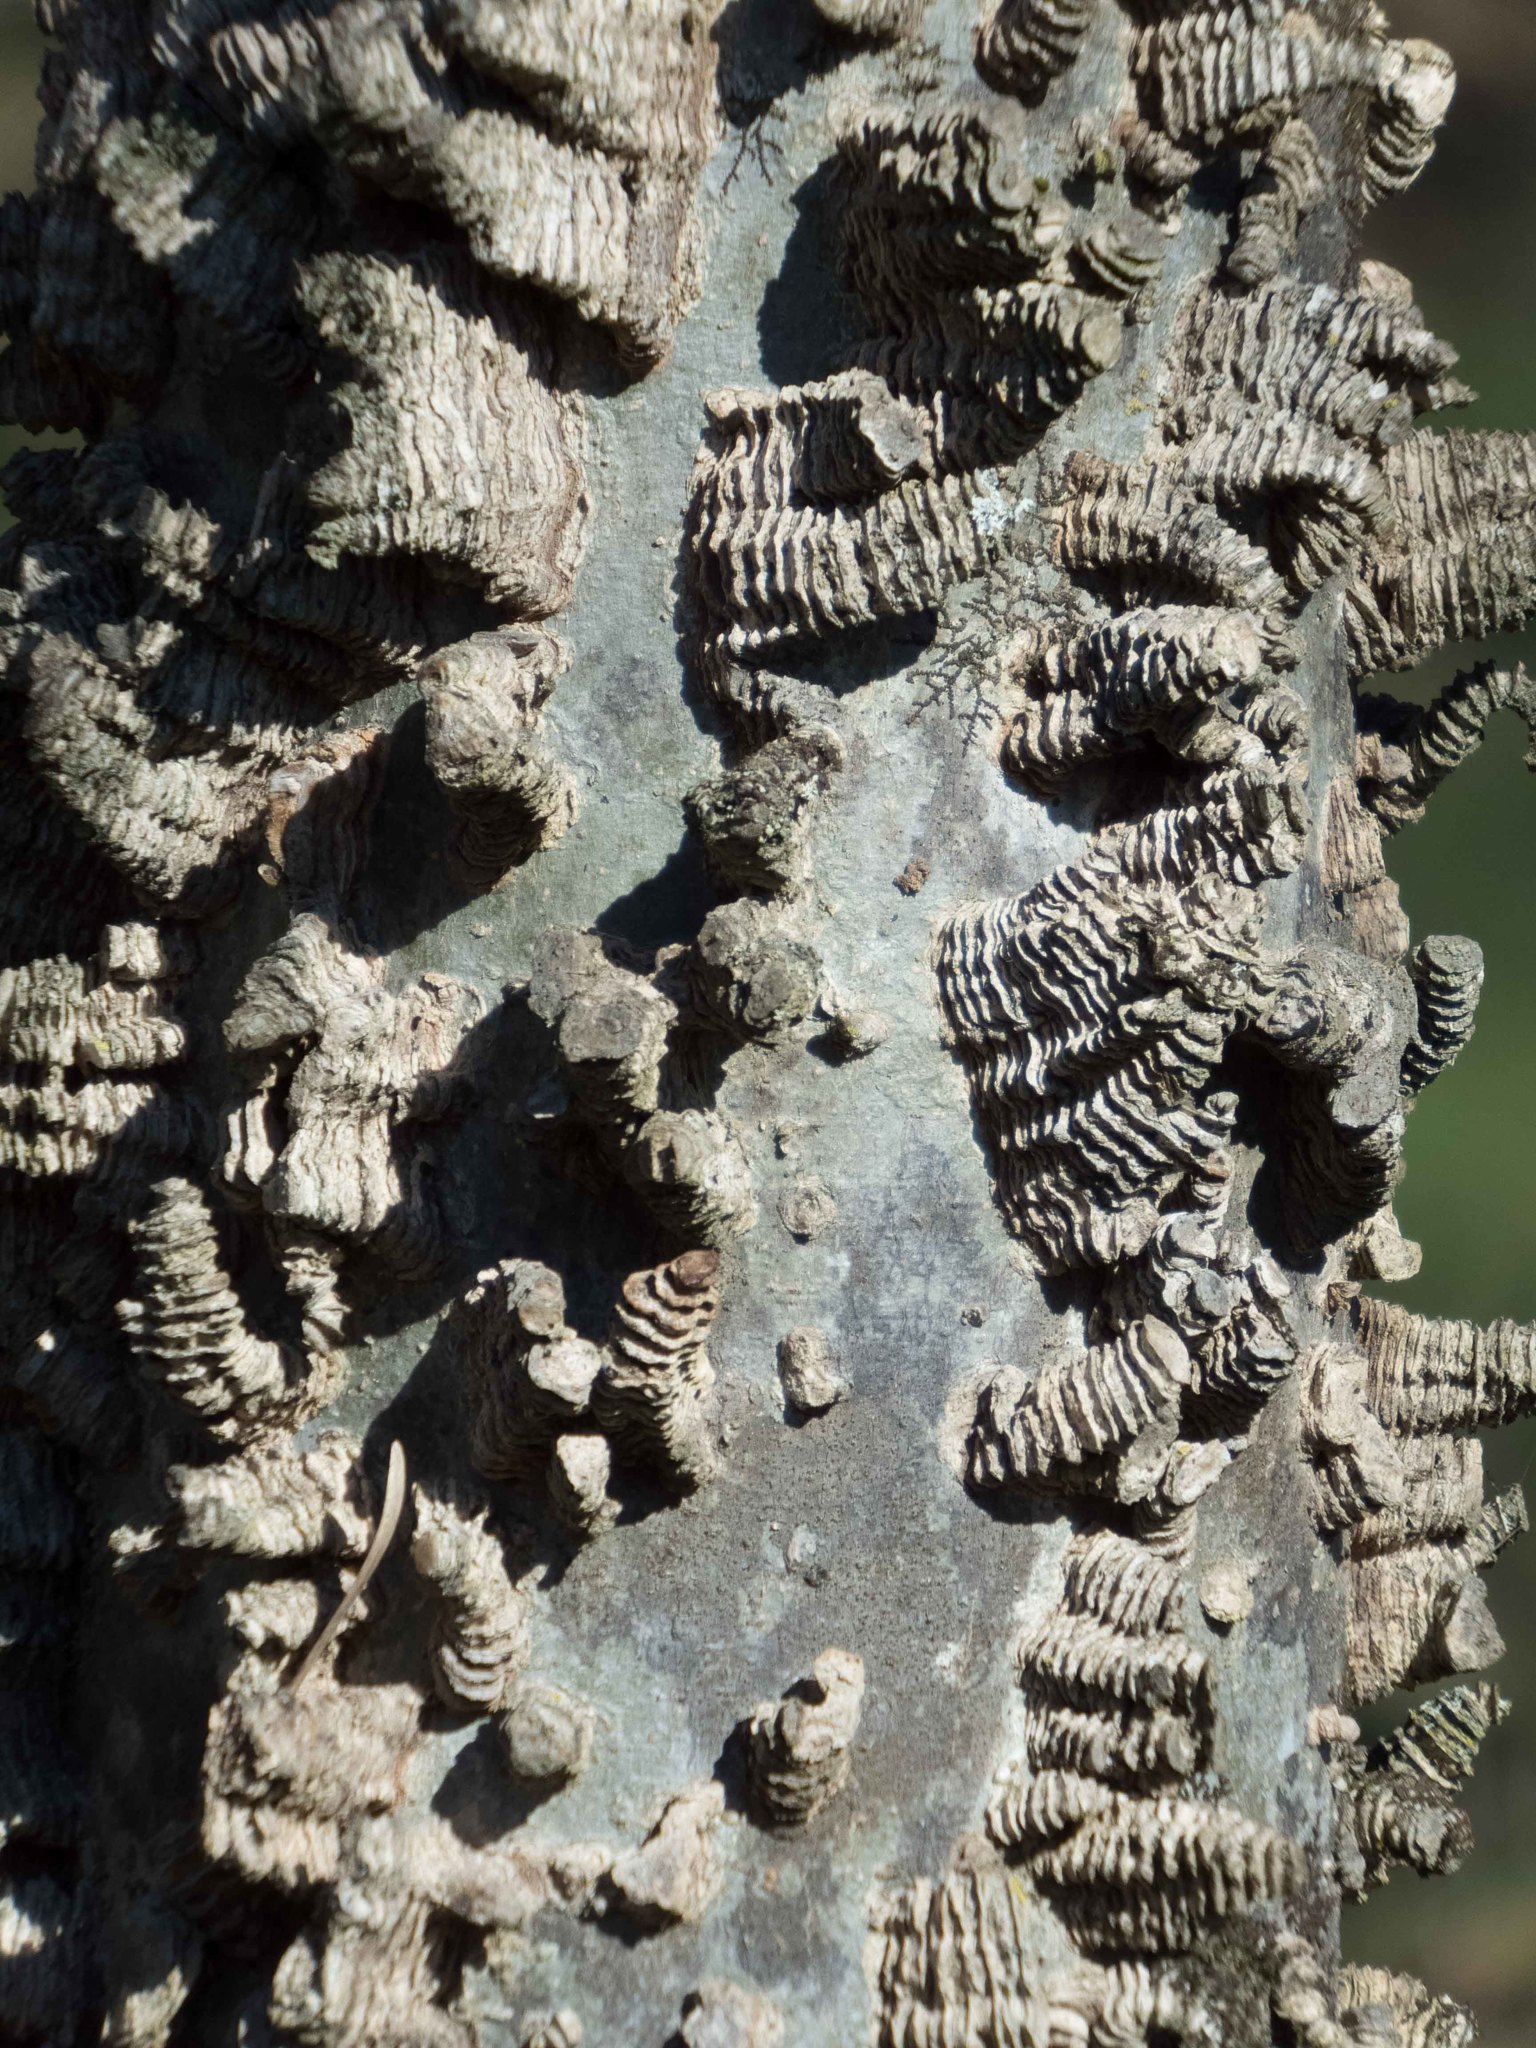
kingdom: Plantae
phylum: Tracheophyta
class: Magnoliopsida
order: Rosales
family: Cannabaceae
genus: Celtis
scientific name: Celtis laevigata
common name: Sugarberry
